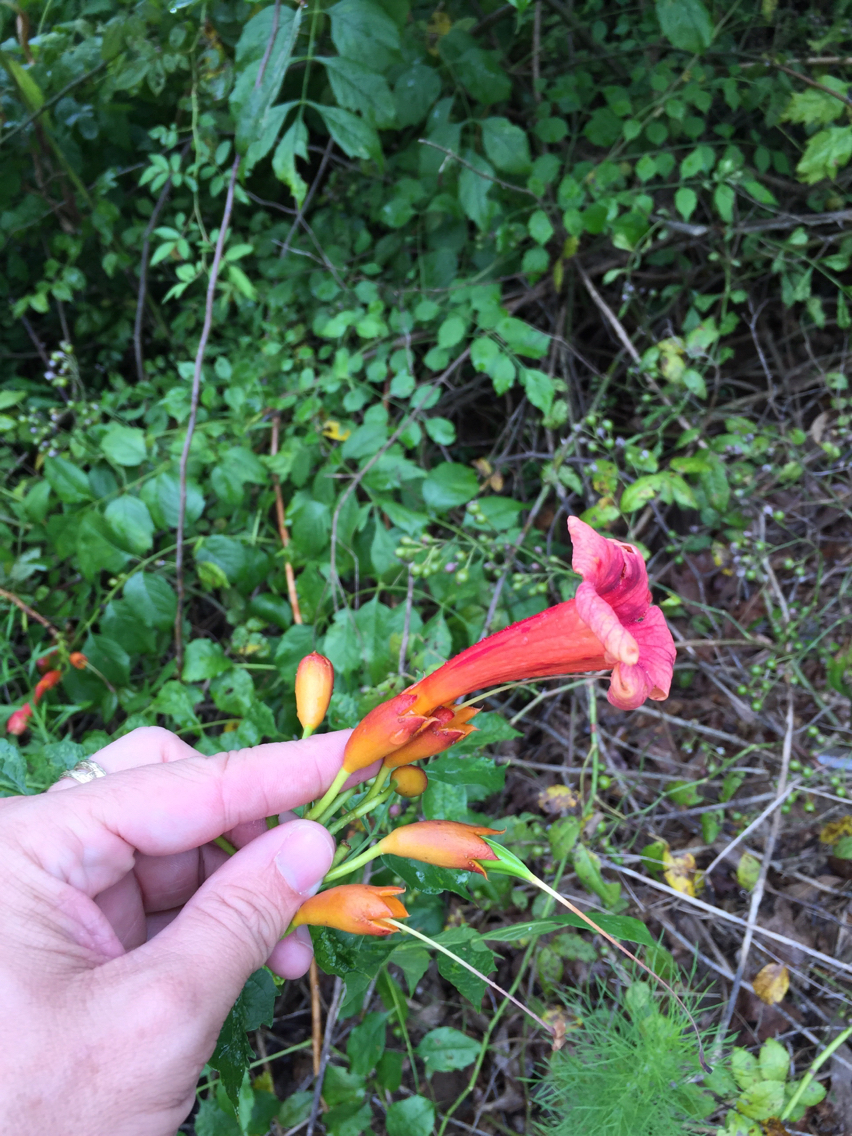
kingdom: Plantae
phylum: Tracheophyta
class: Magnoliopsida
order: Lamiales
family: Bignoniaceae
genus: Campsis
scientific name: Campsis radicans
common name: Trumpet-creeper
